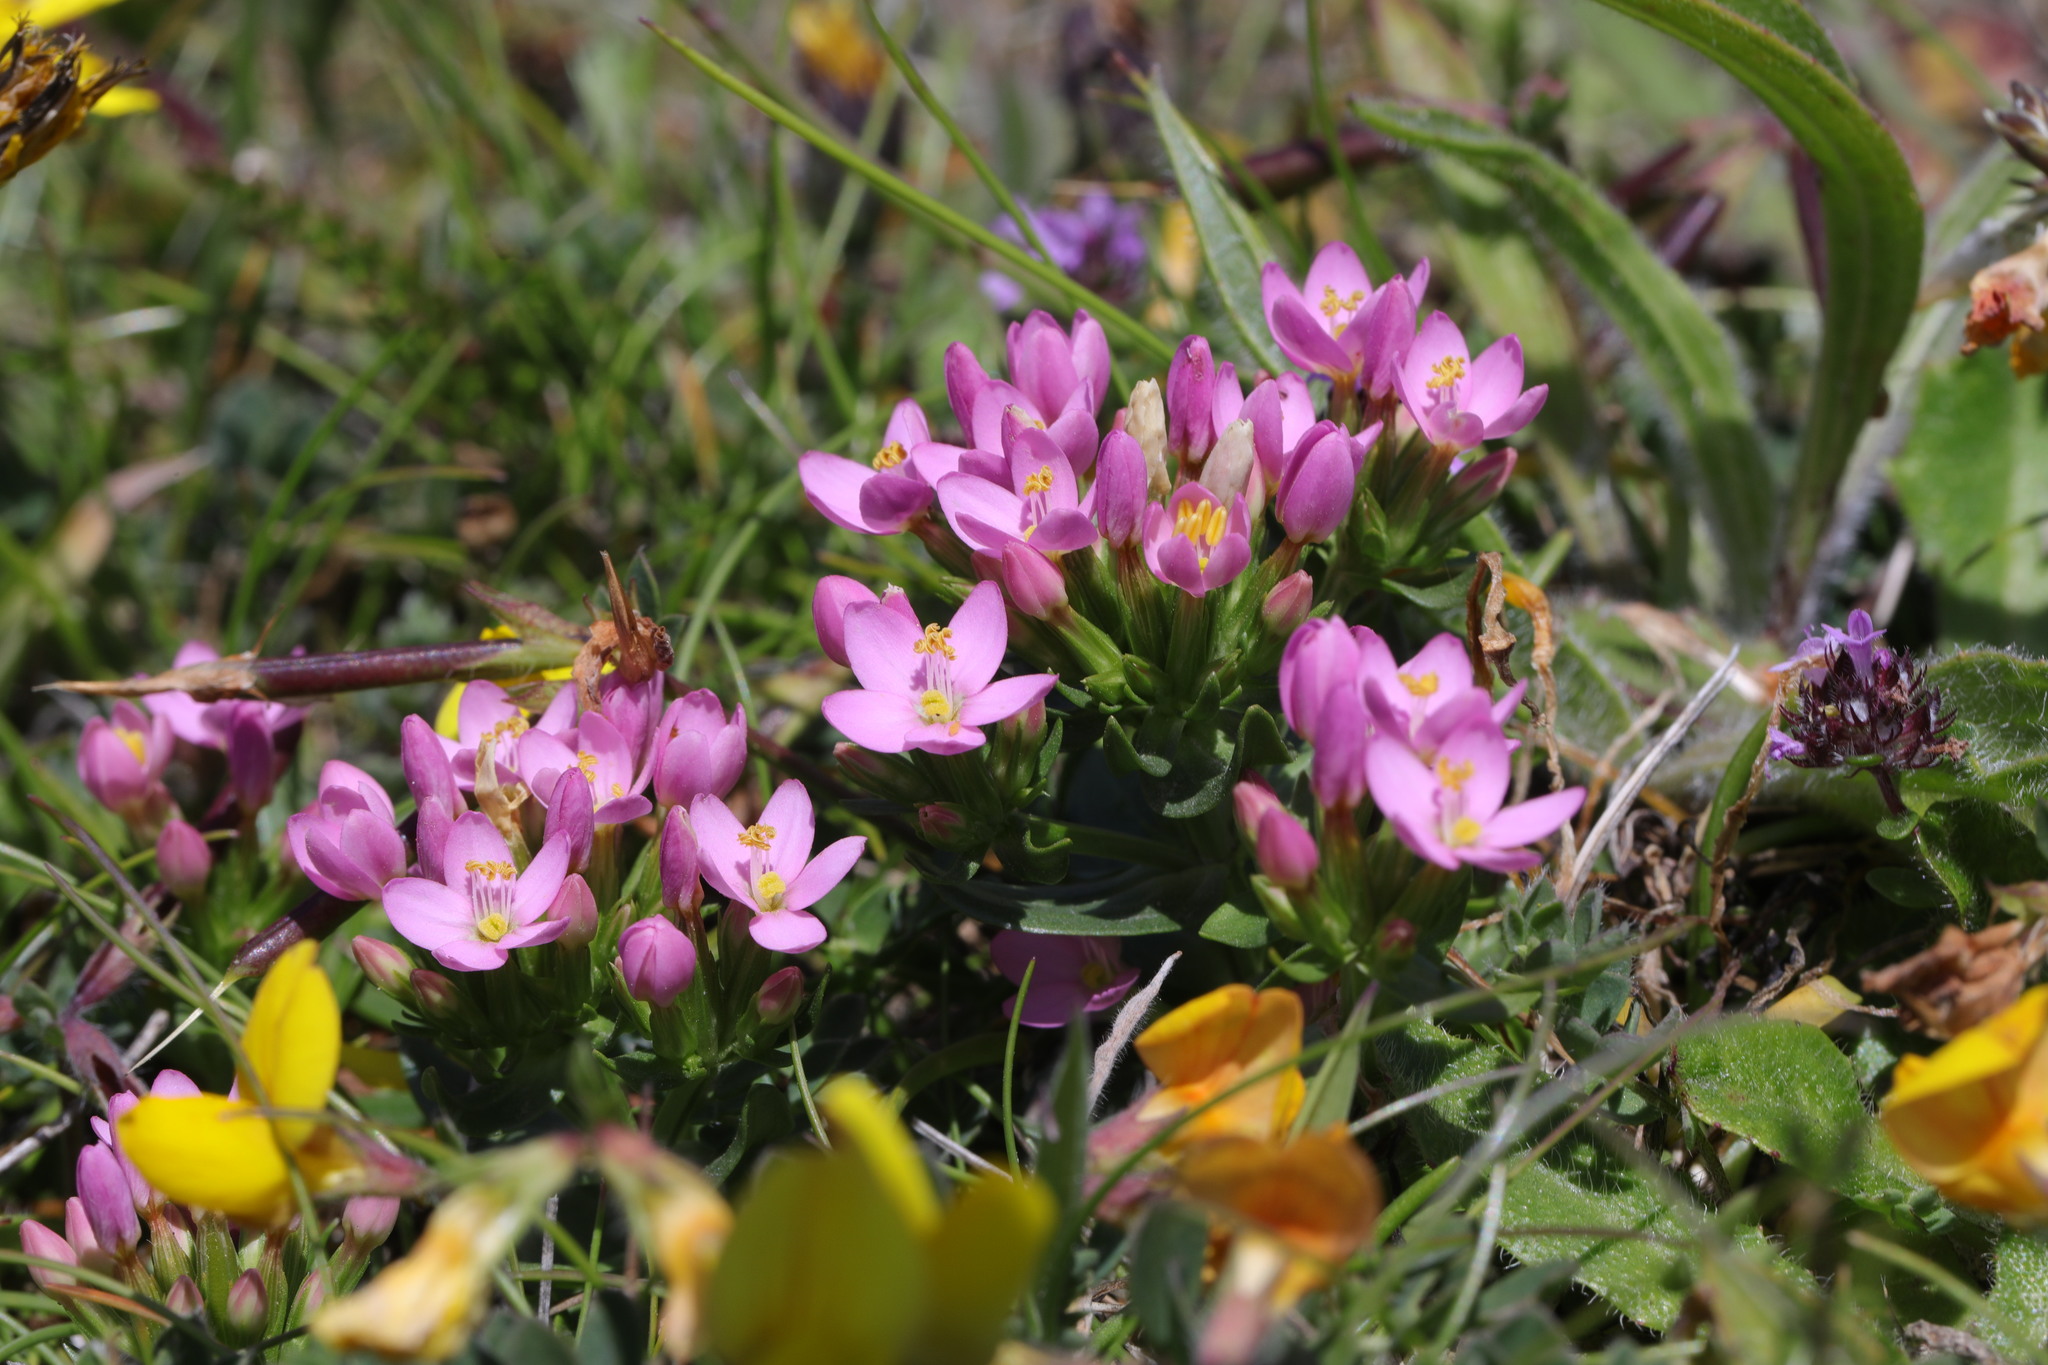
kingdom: Plantae
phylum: Tracheophyta
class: Magnoliopsida
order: Gentianales
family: Gentianaceae
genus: Centaurium
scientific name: Centaurium erythraea
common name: Common centaury
